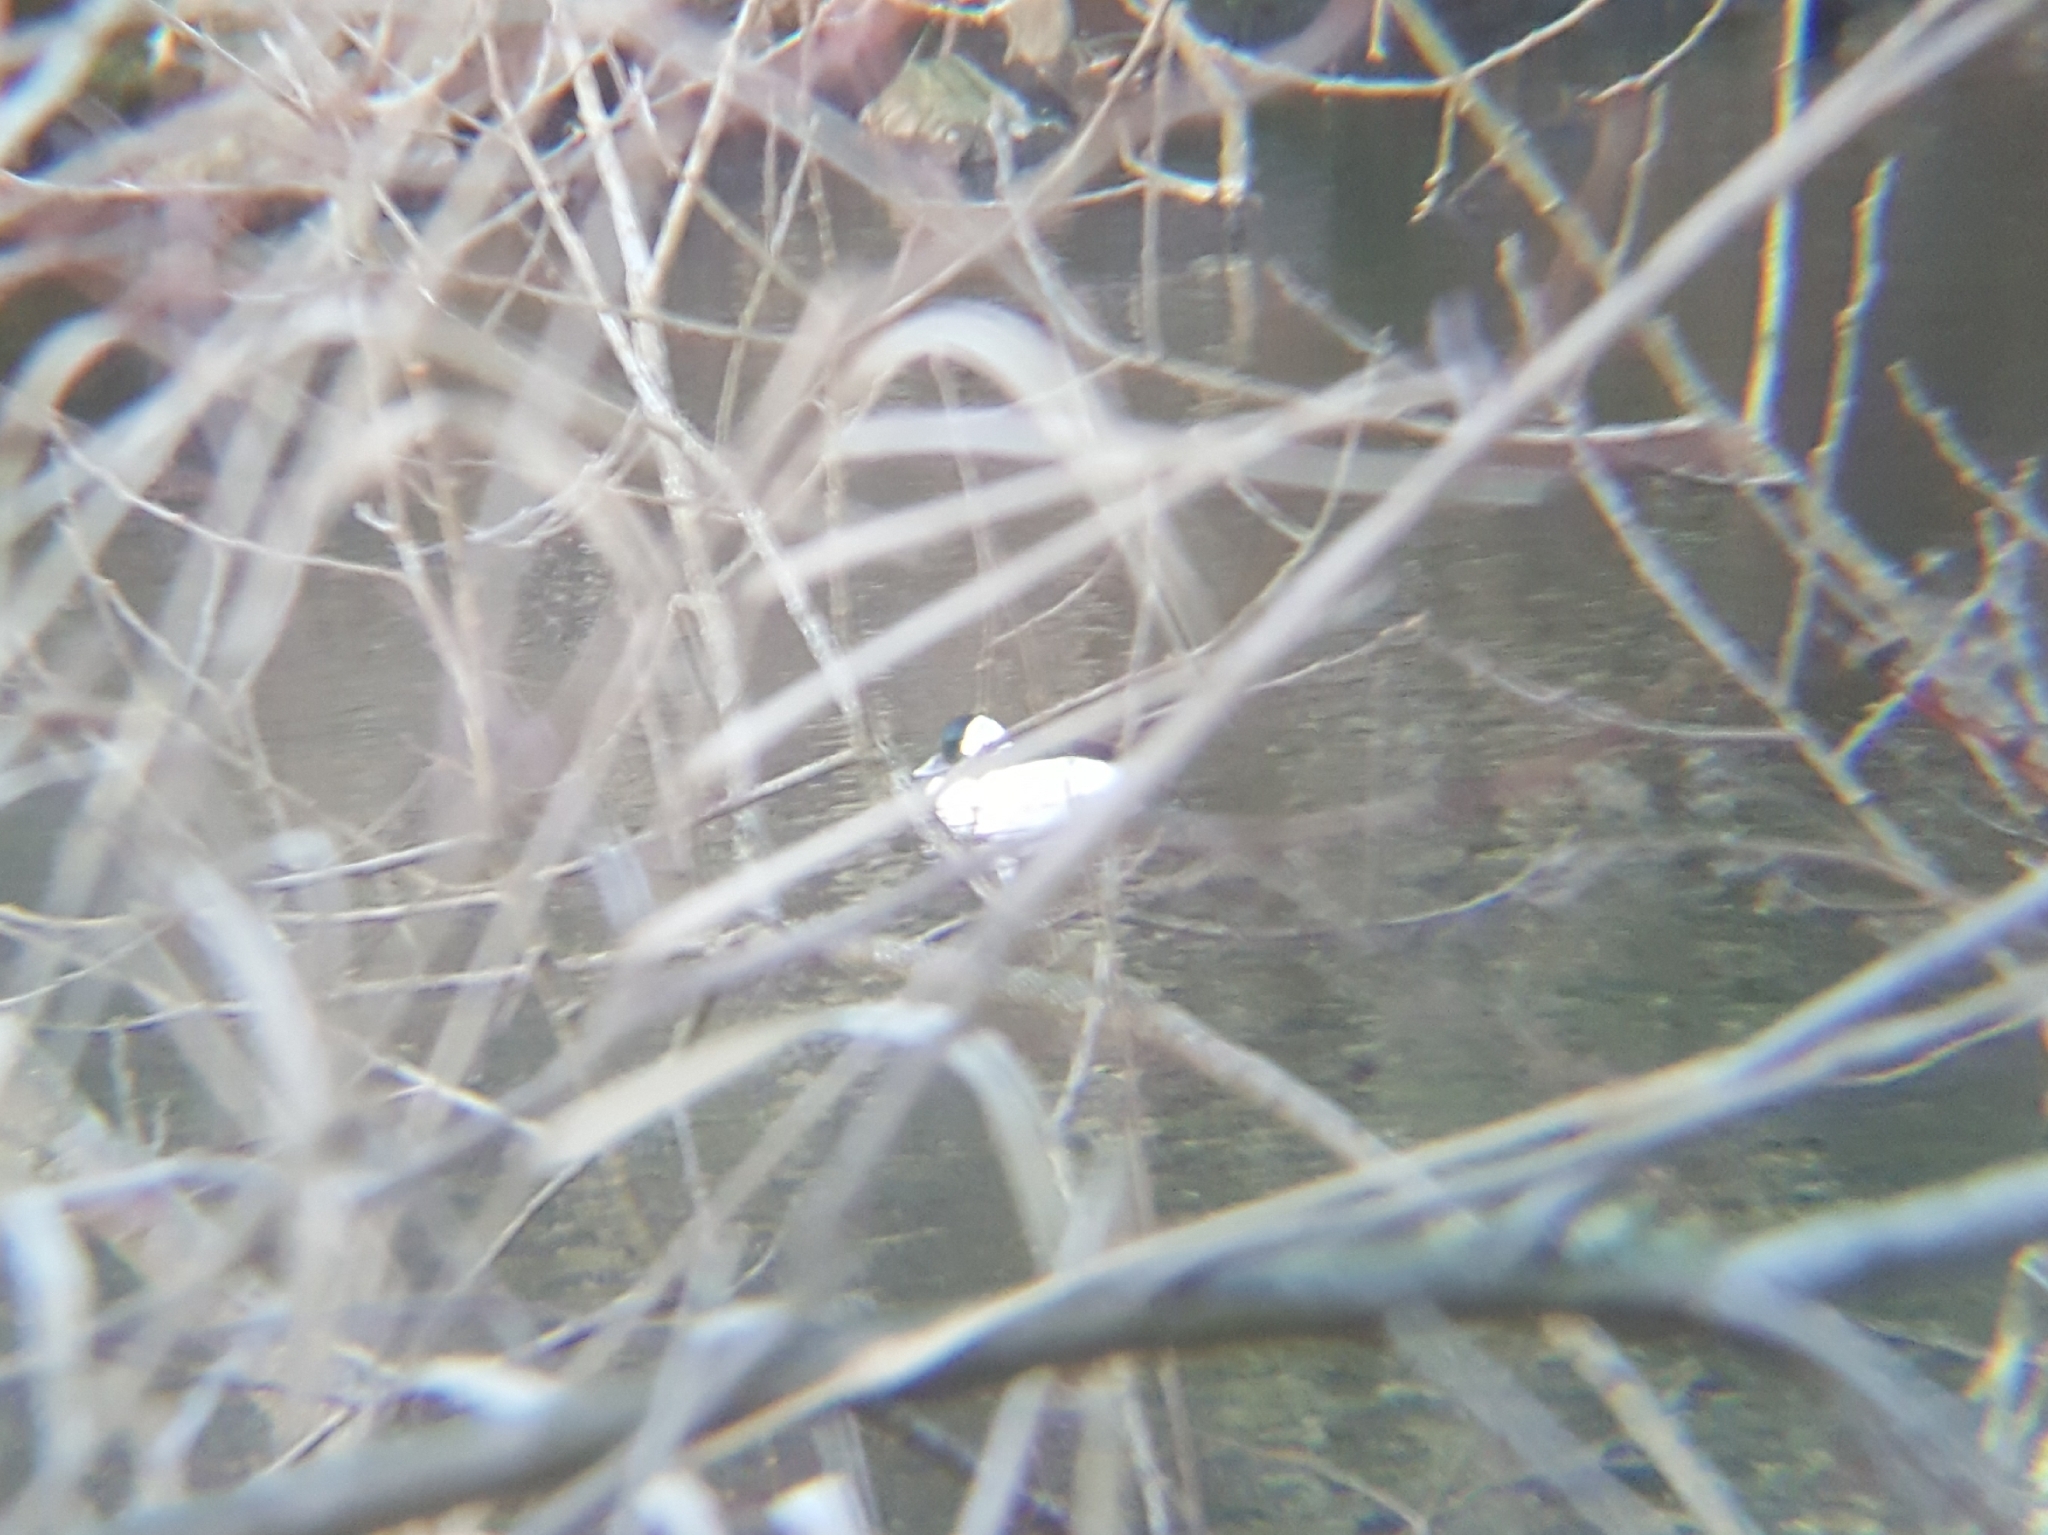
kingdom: Animalia
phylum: Chordata
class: Aves
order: Anseriformes
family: Anatidae
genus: Bucephala
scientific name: Bucephala albeola
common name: Bufflehead
